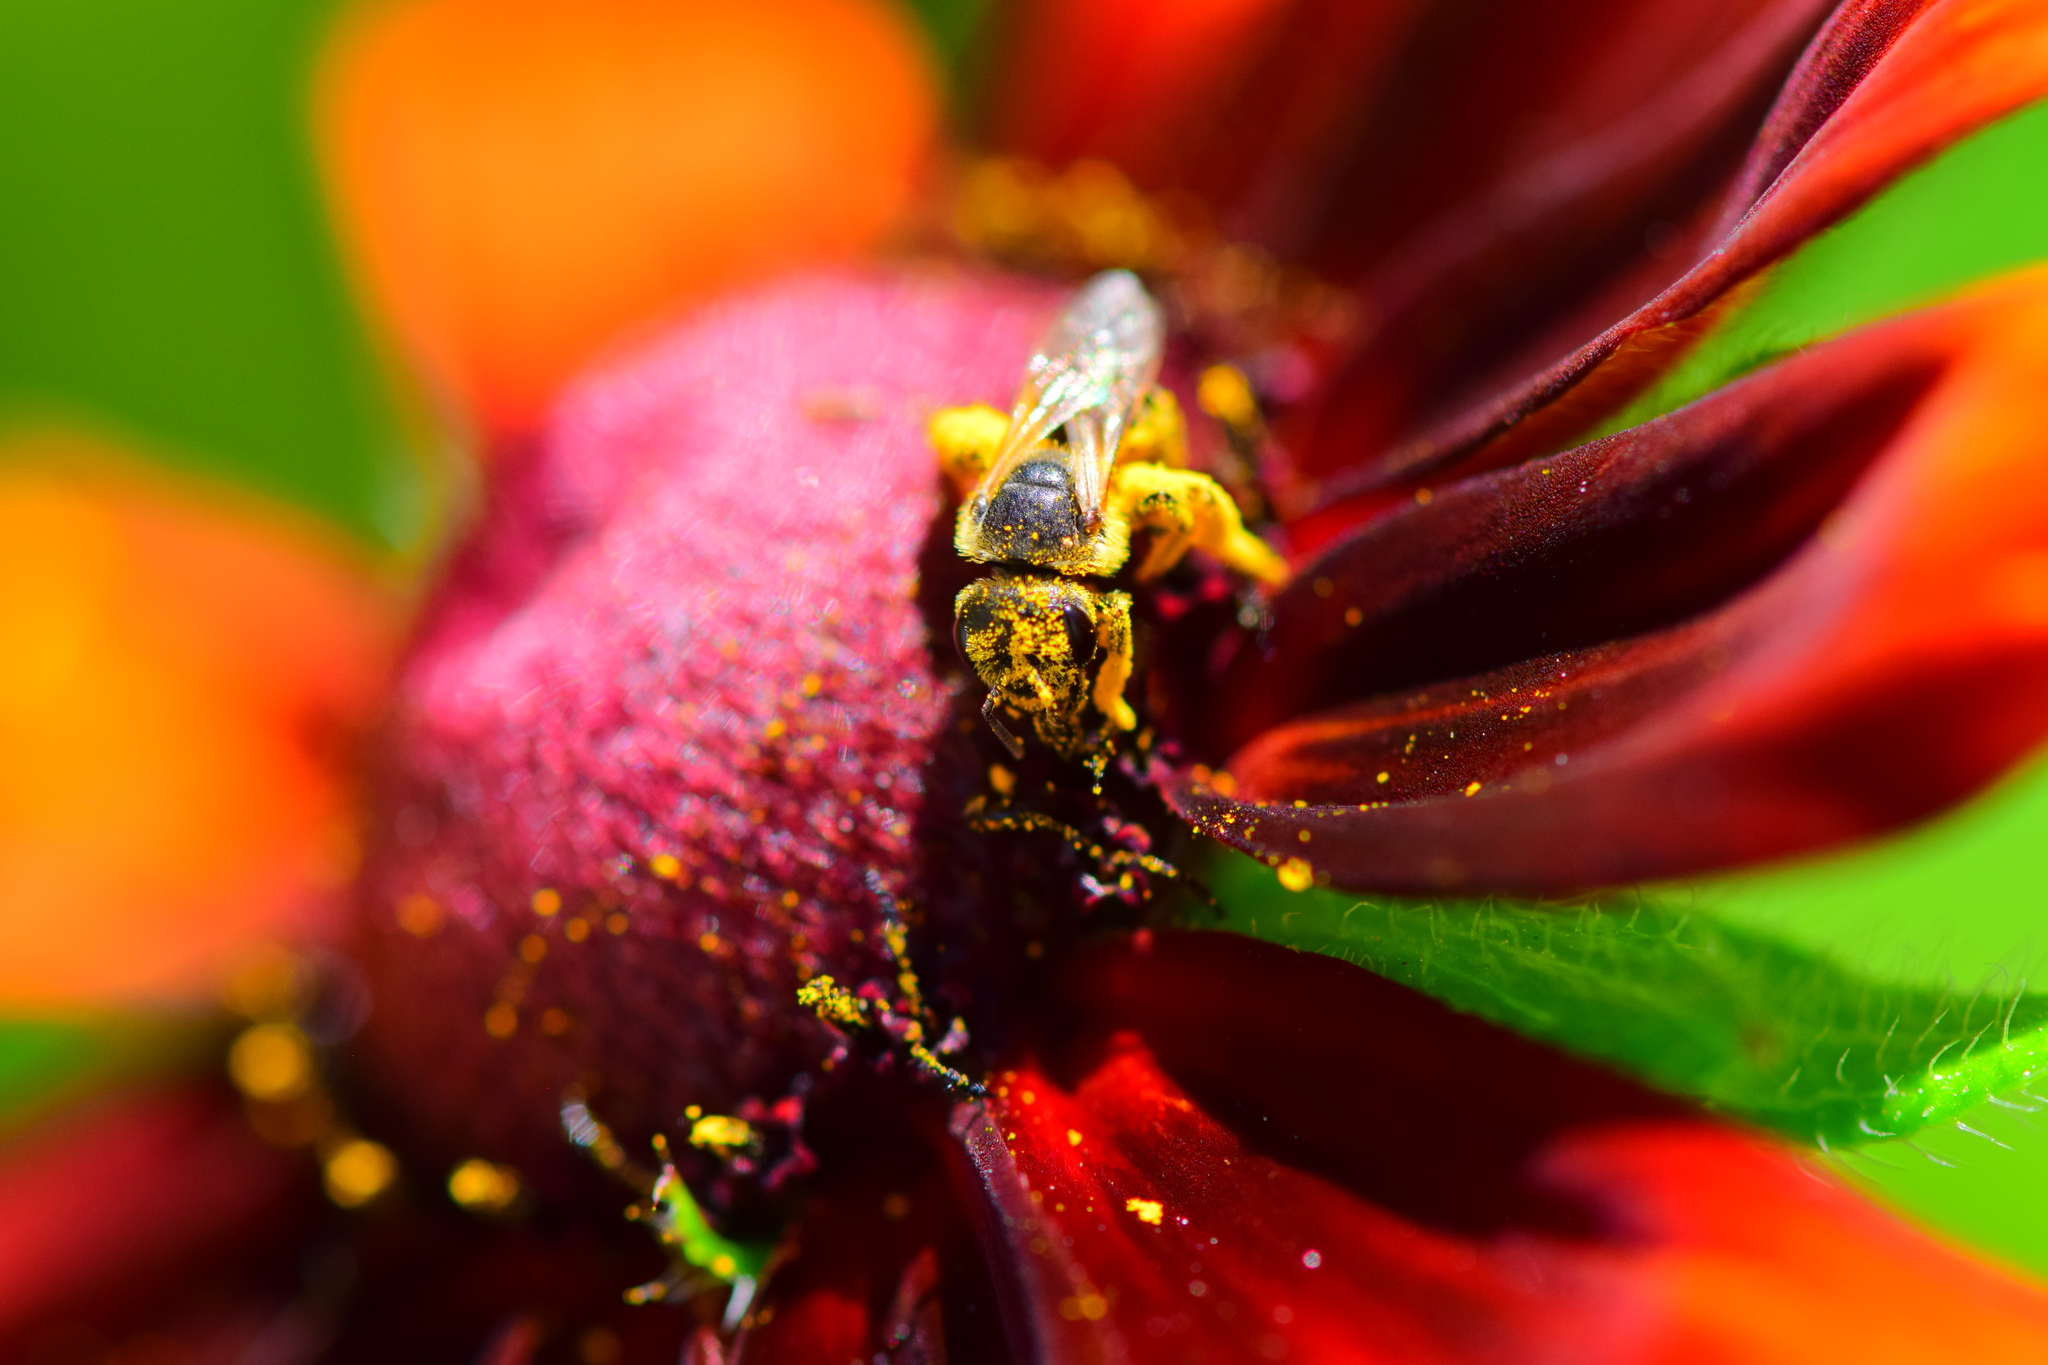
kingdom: Animalia
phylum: Arthropoda
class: Insecta
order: Hymenoptera
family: Halictidae
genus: Halictus
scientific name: Halictus ligatus
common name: Ligated furrow bee
